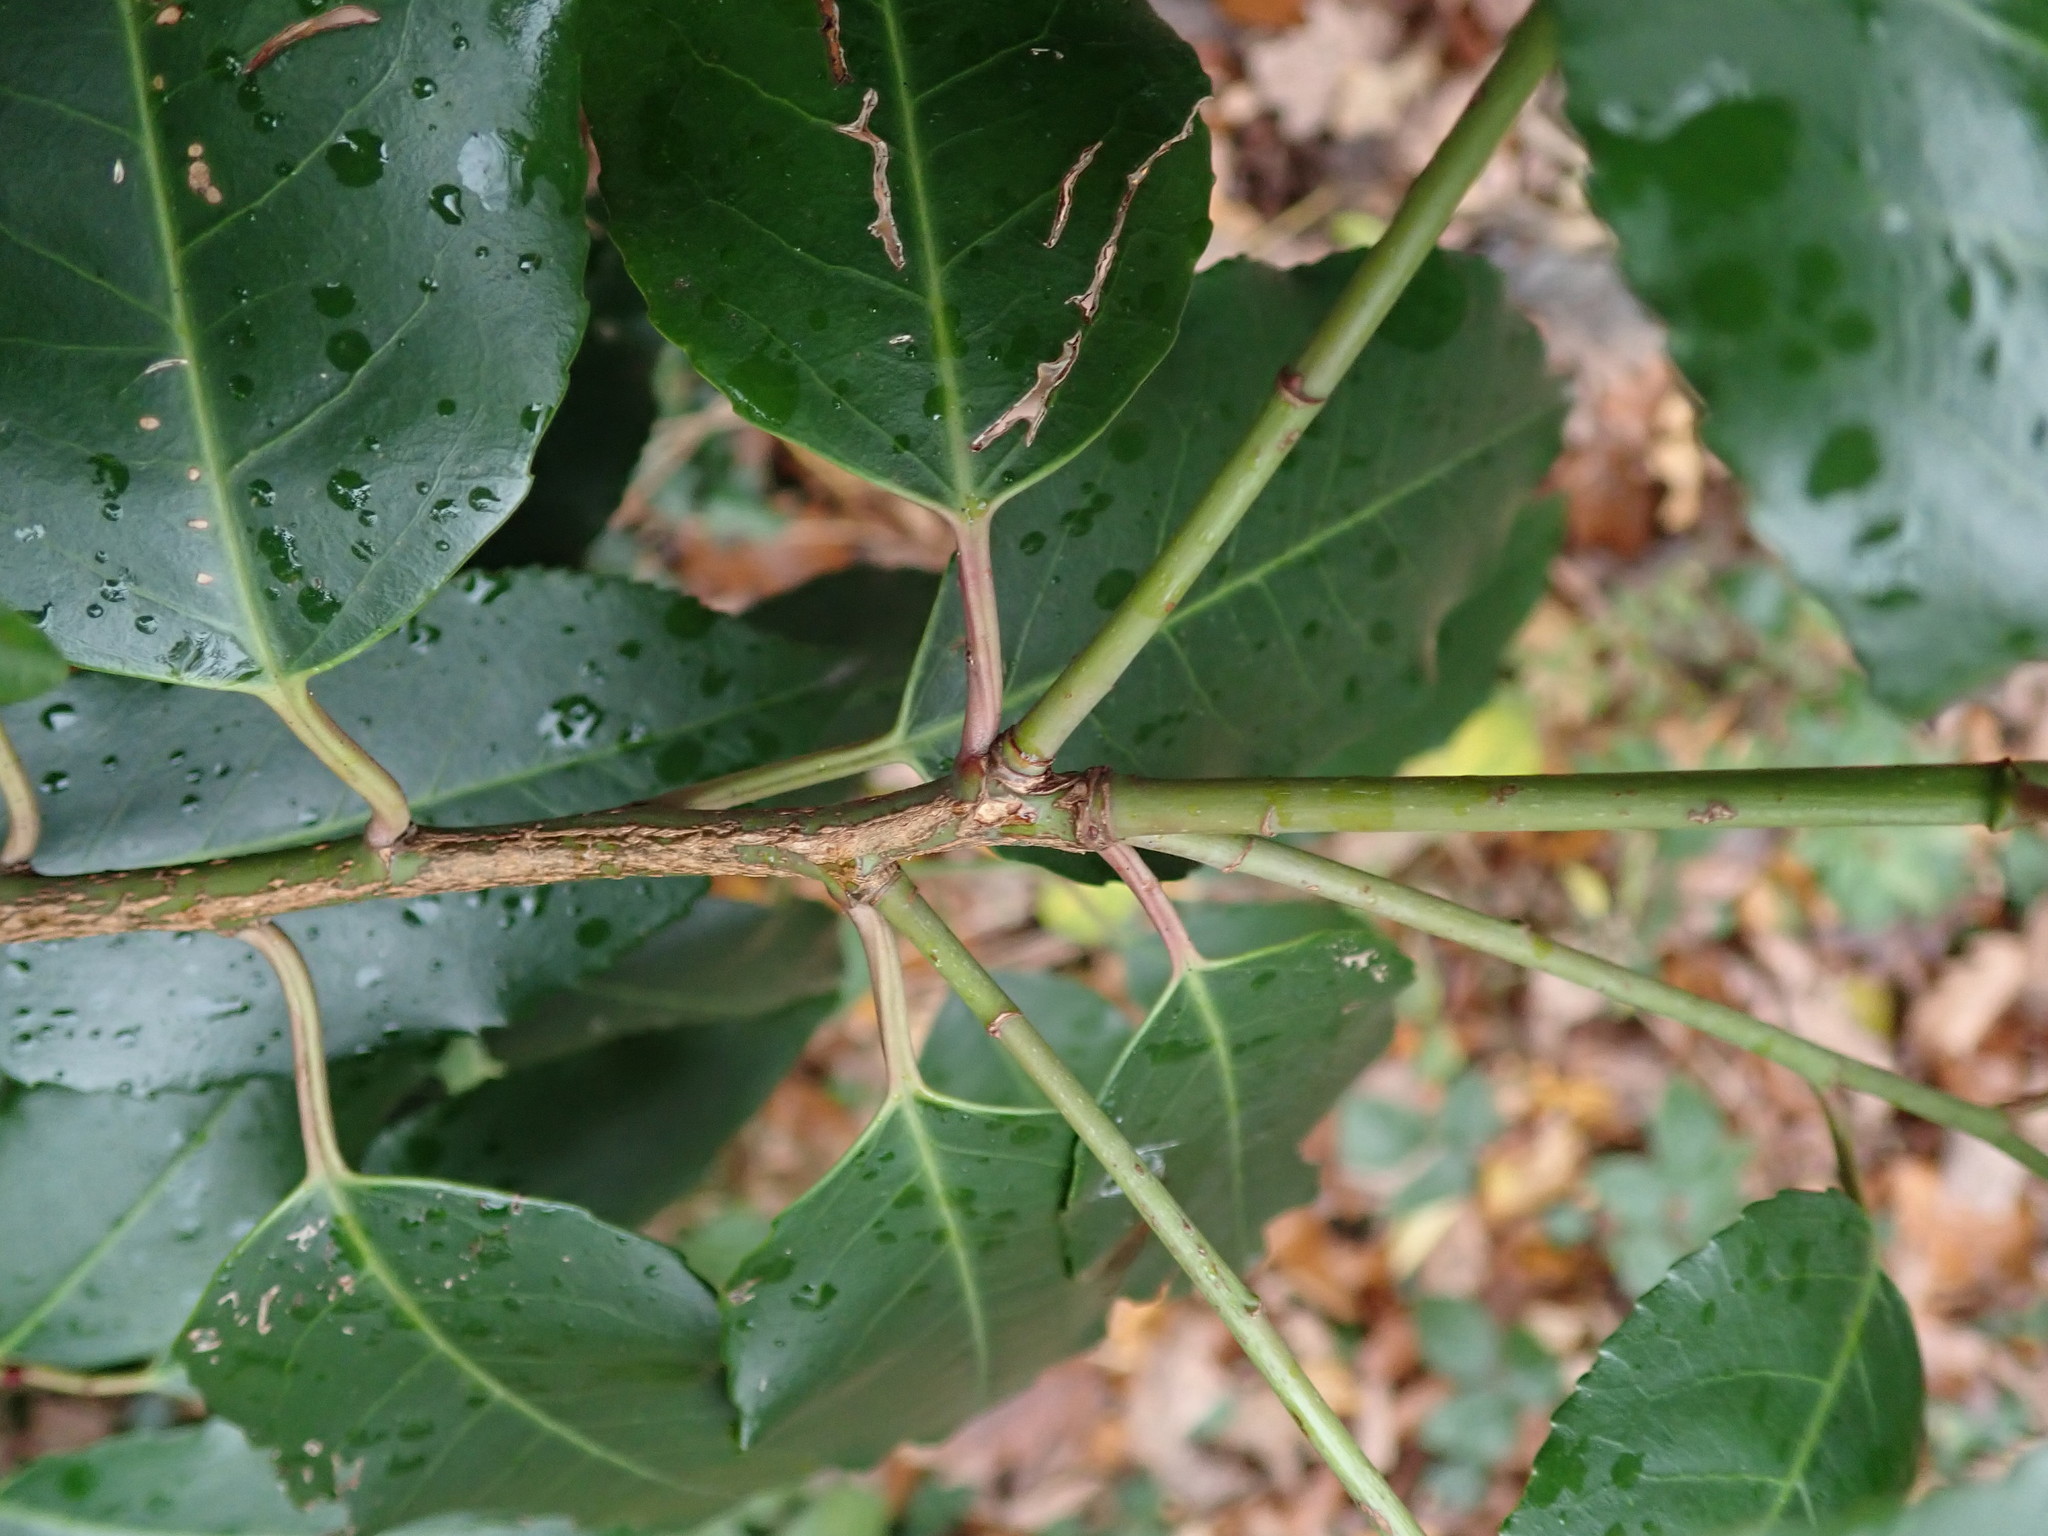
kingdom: Plantae
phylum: Tracheophyta
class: Magnoliopsida
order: Rosales
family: Rosaceae
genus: Prunus
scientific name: Prunus lusitanica
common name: Portugal laurel
